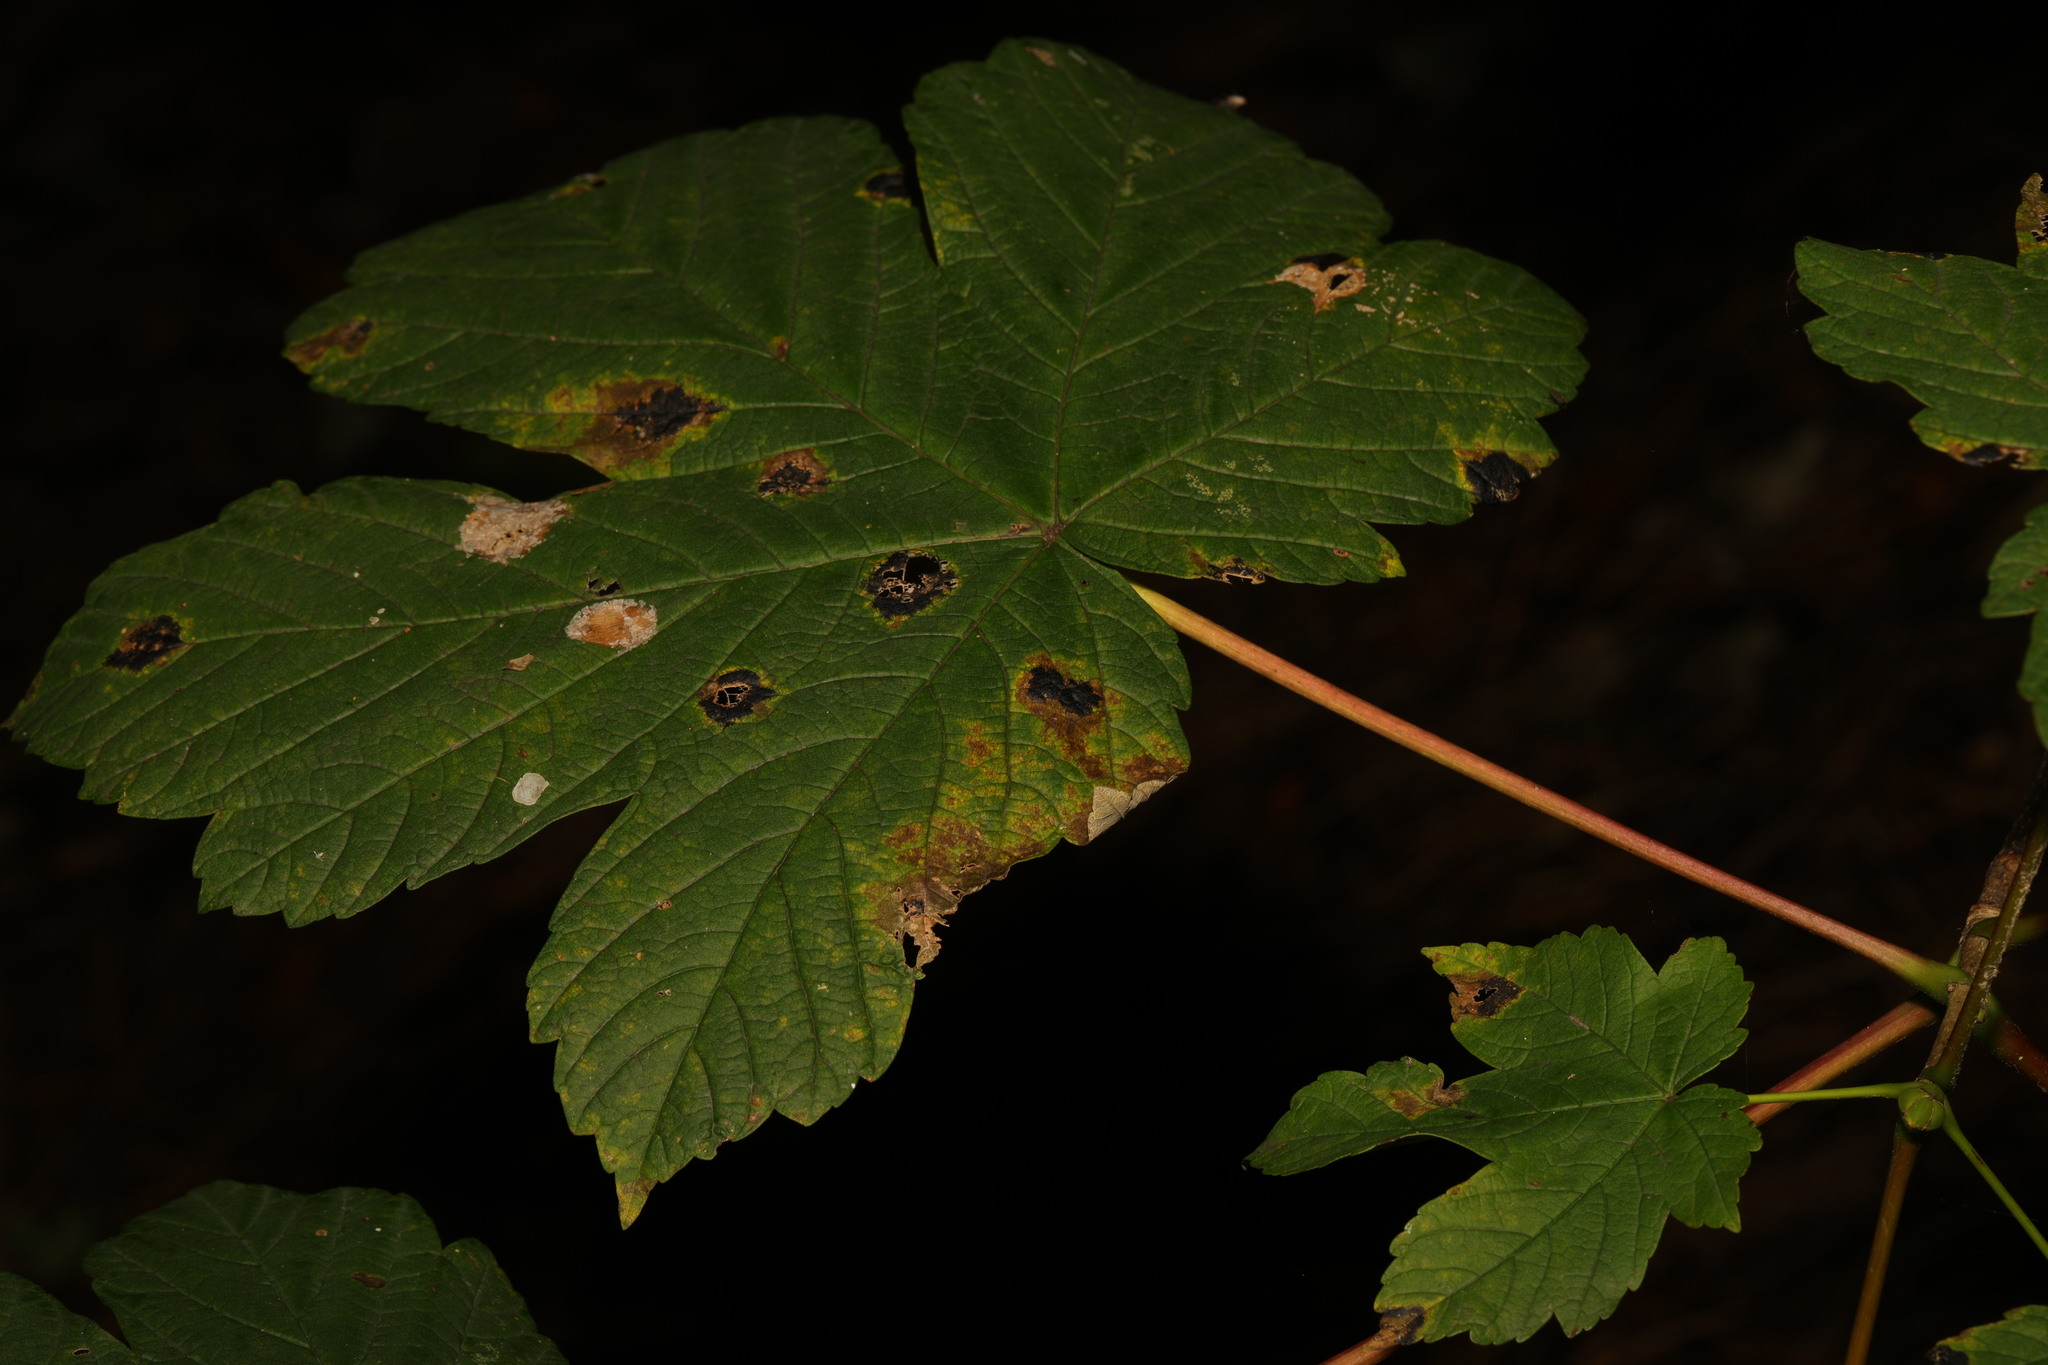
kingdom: Plantae
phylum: Tracheophyta
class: Magnoliopsida
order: Sapindales
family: Sapindaceae
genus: Acer
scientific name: Acer pseudoplatanus
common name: Sycamore
